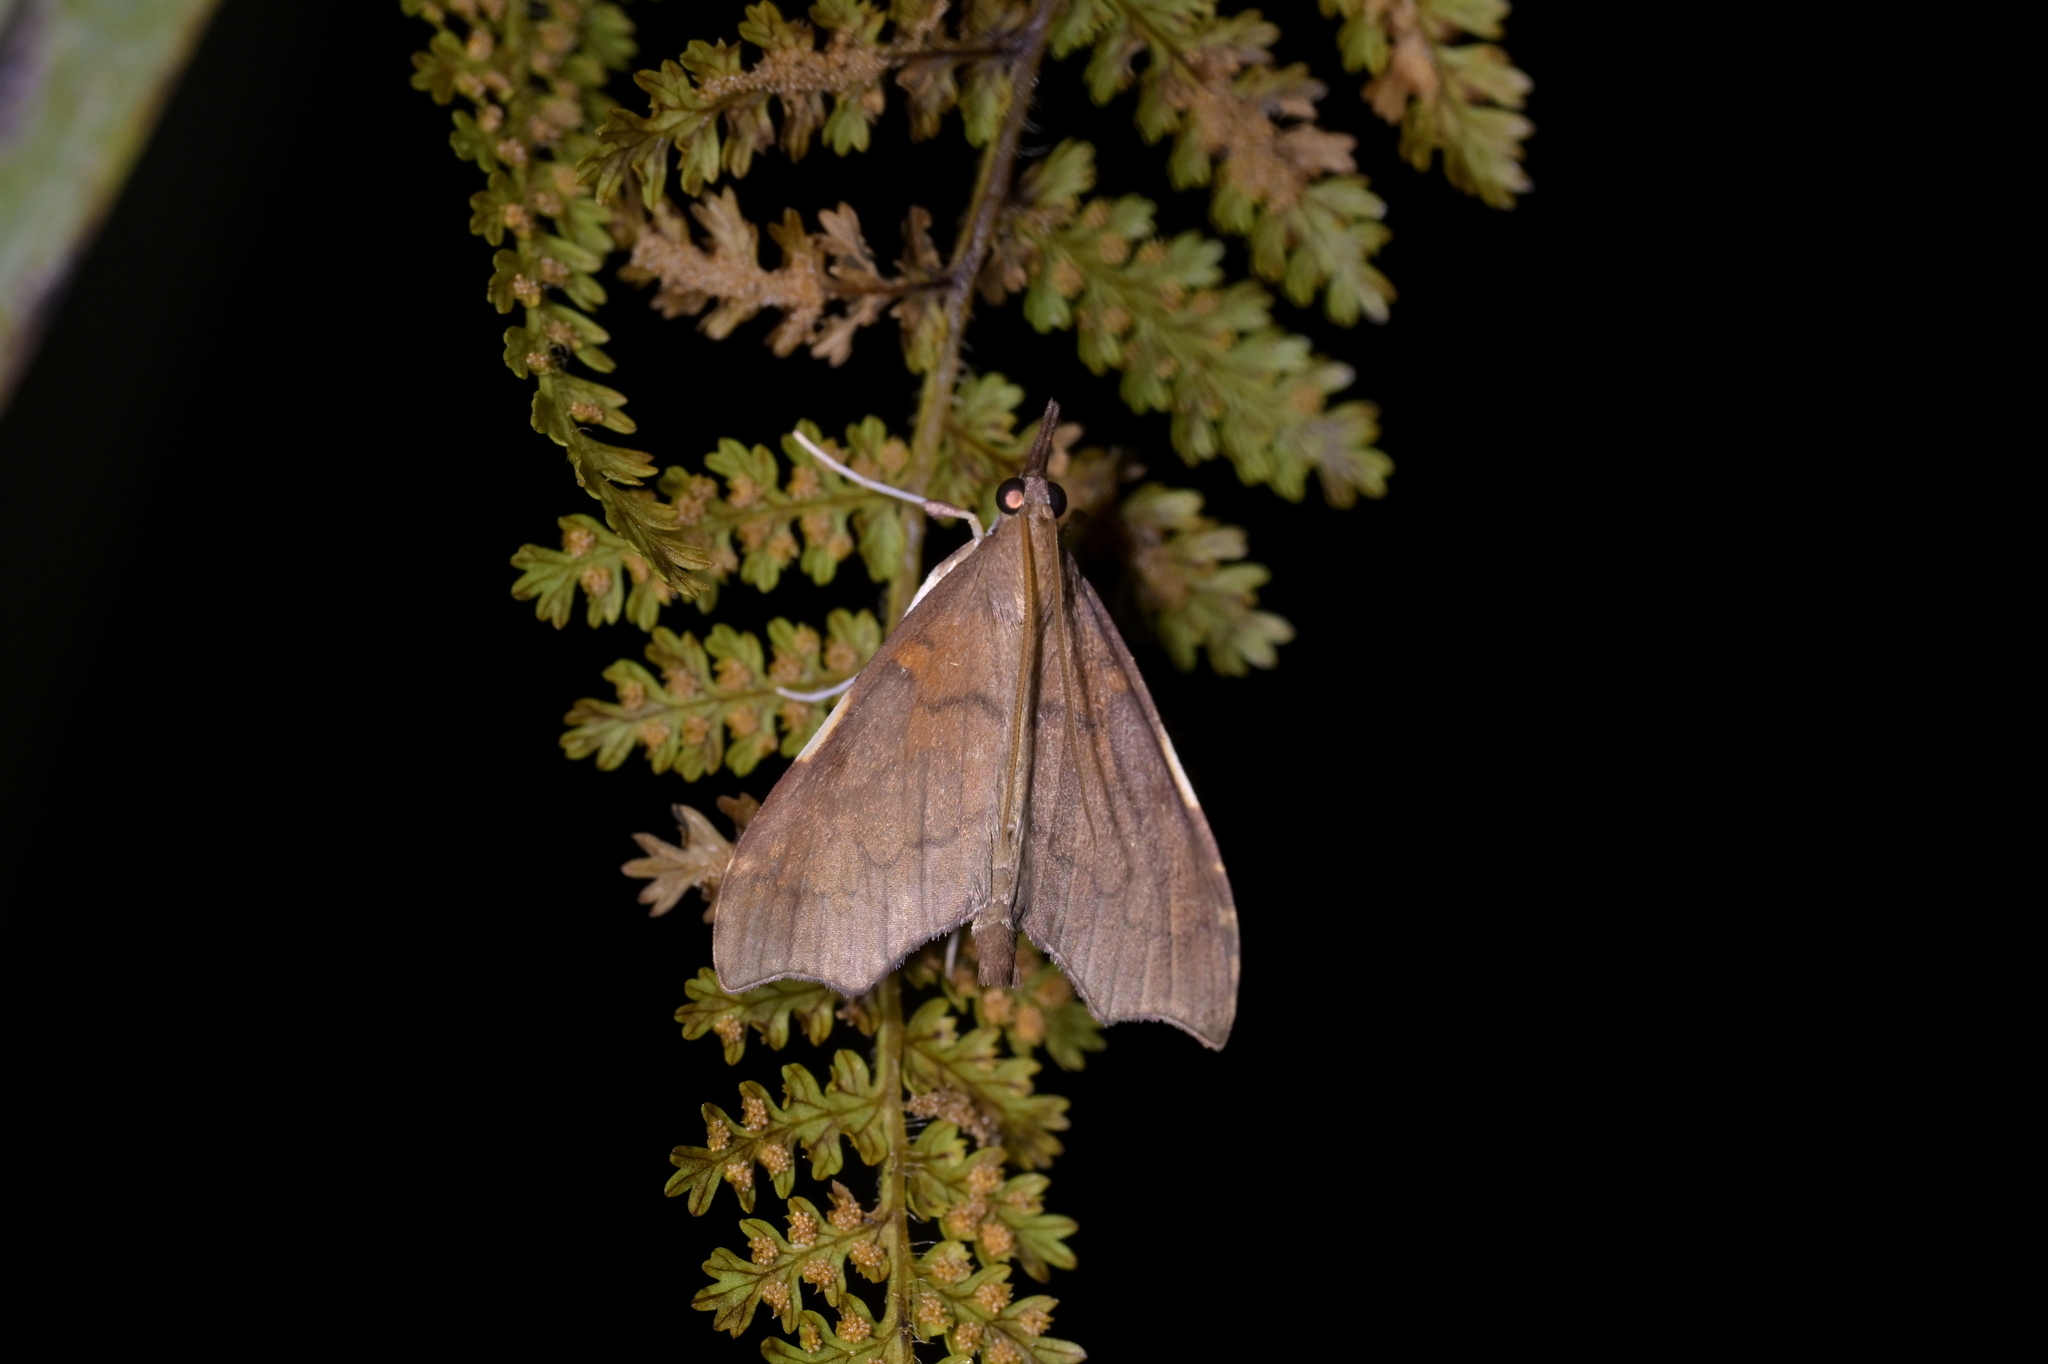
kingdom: Animalia
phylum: Arthropoda
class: Insecta
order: Lepidoptera
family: Crambidae
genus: Deana
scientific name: Deana hybreasalis
